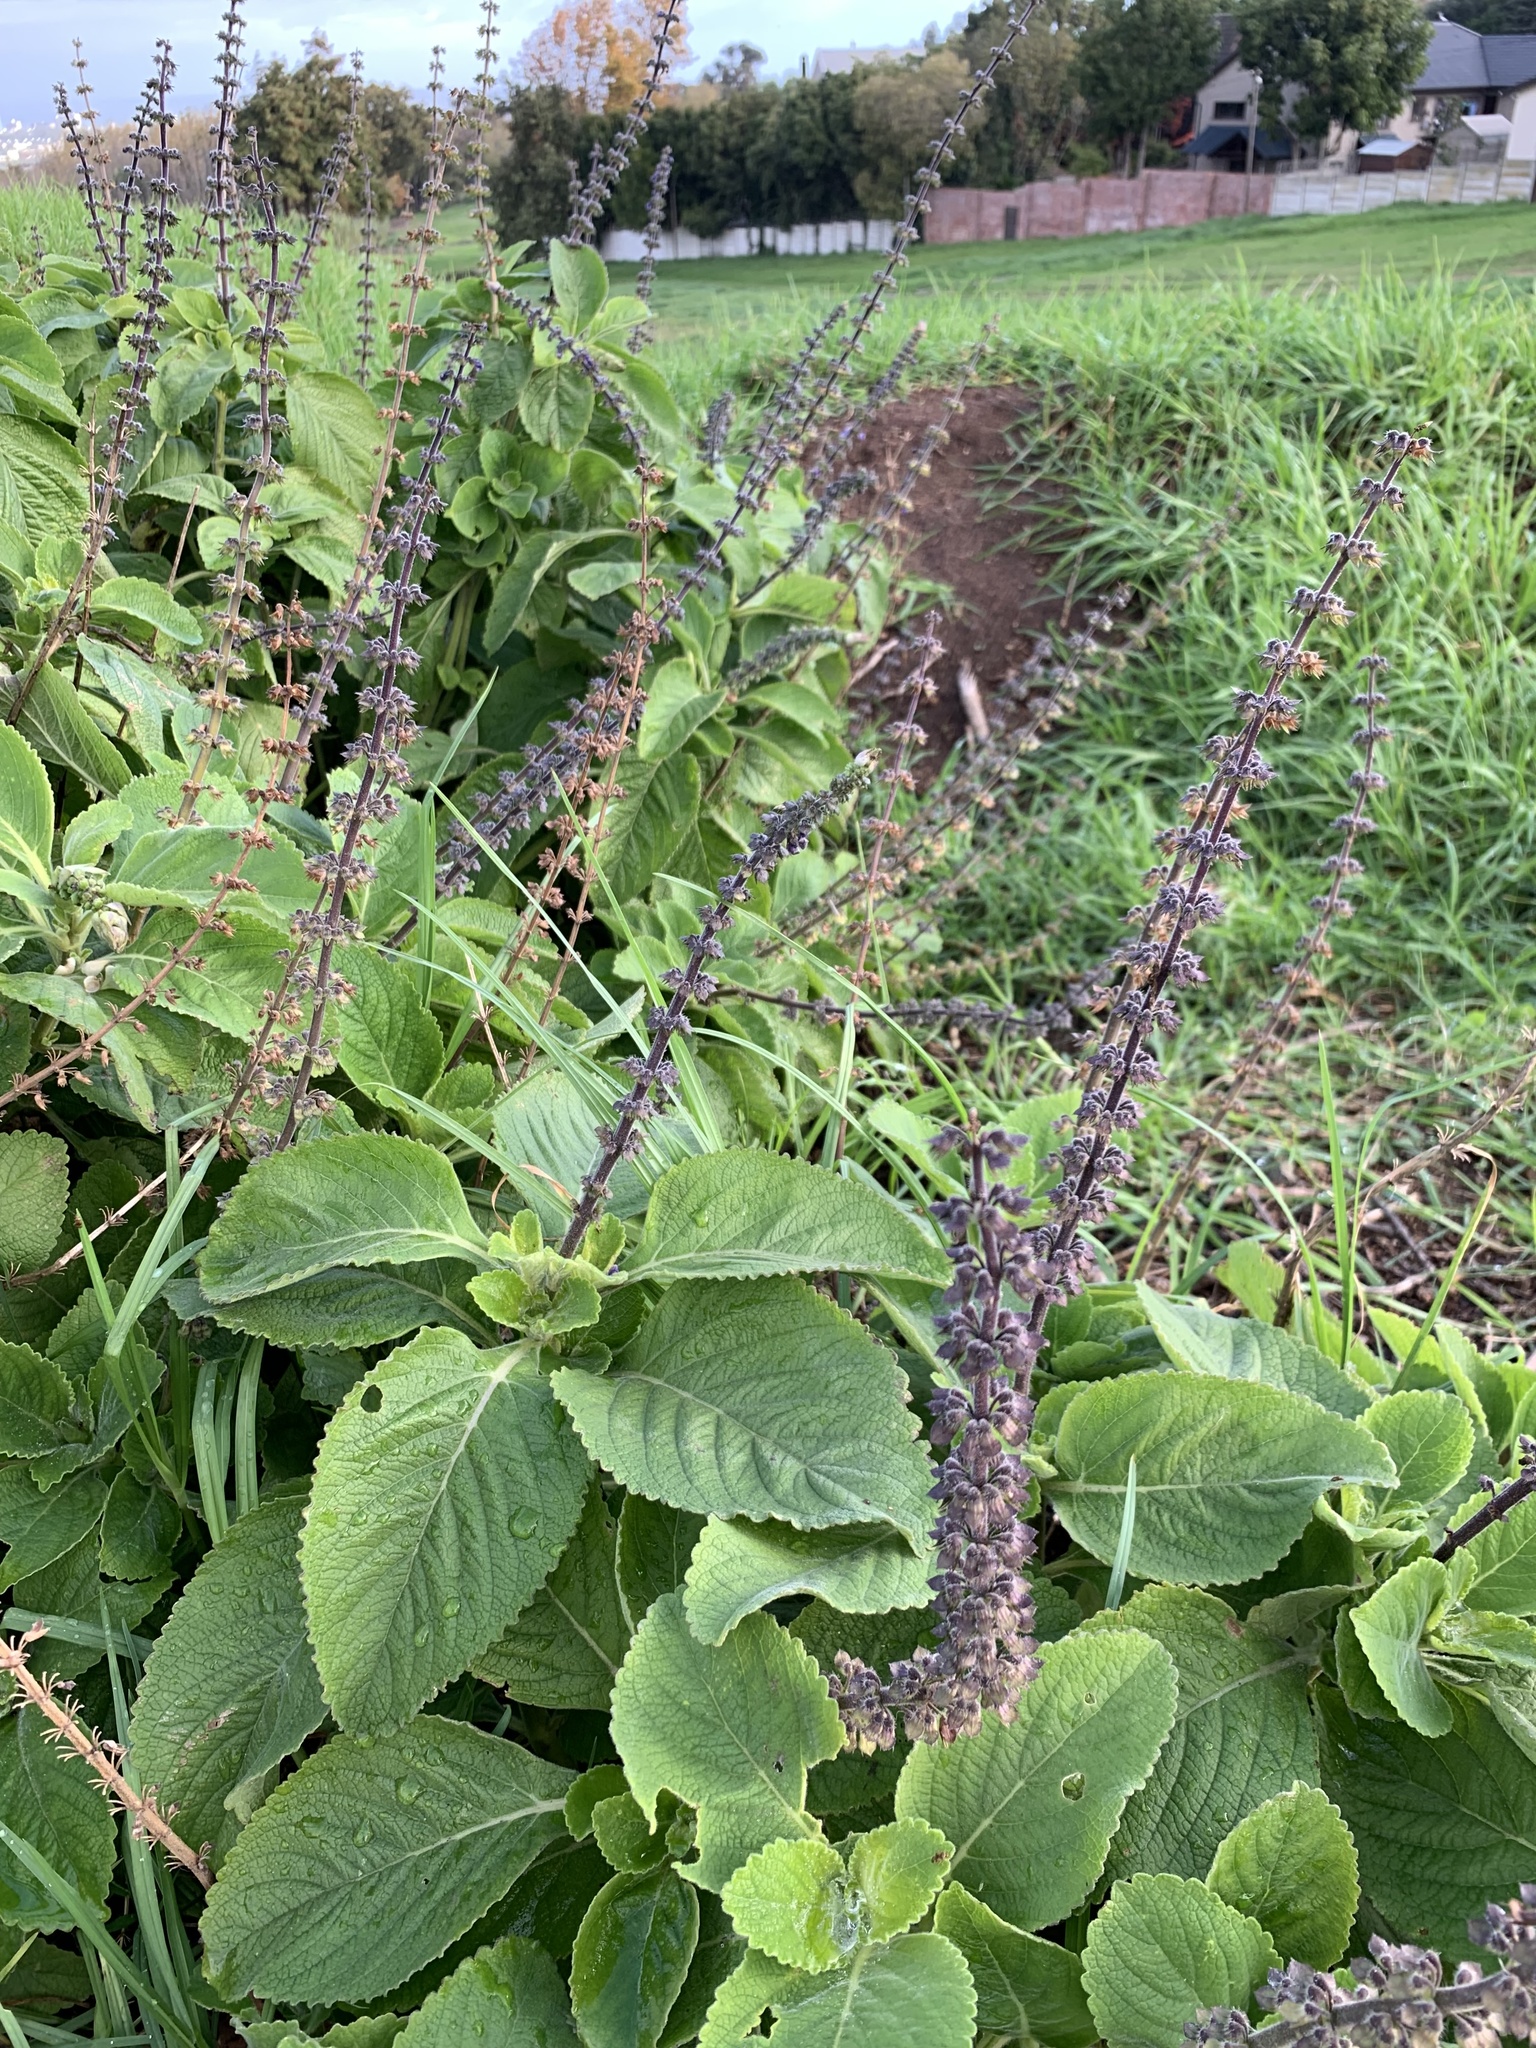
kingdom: Plantae
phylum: Tracheophyta
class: Magnoliopsida
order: Lamiales
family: Lamiaceae
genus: Coleus
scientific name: Coleus barbatus
